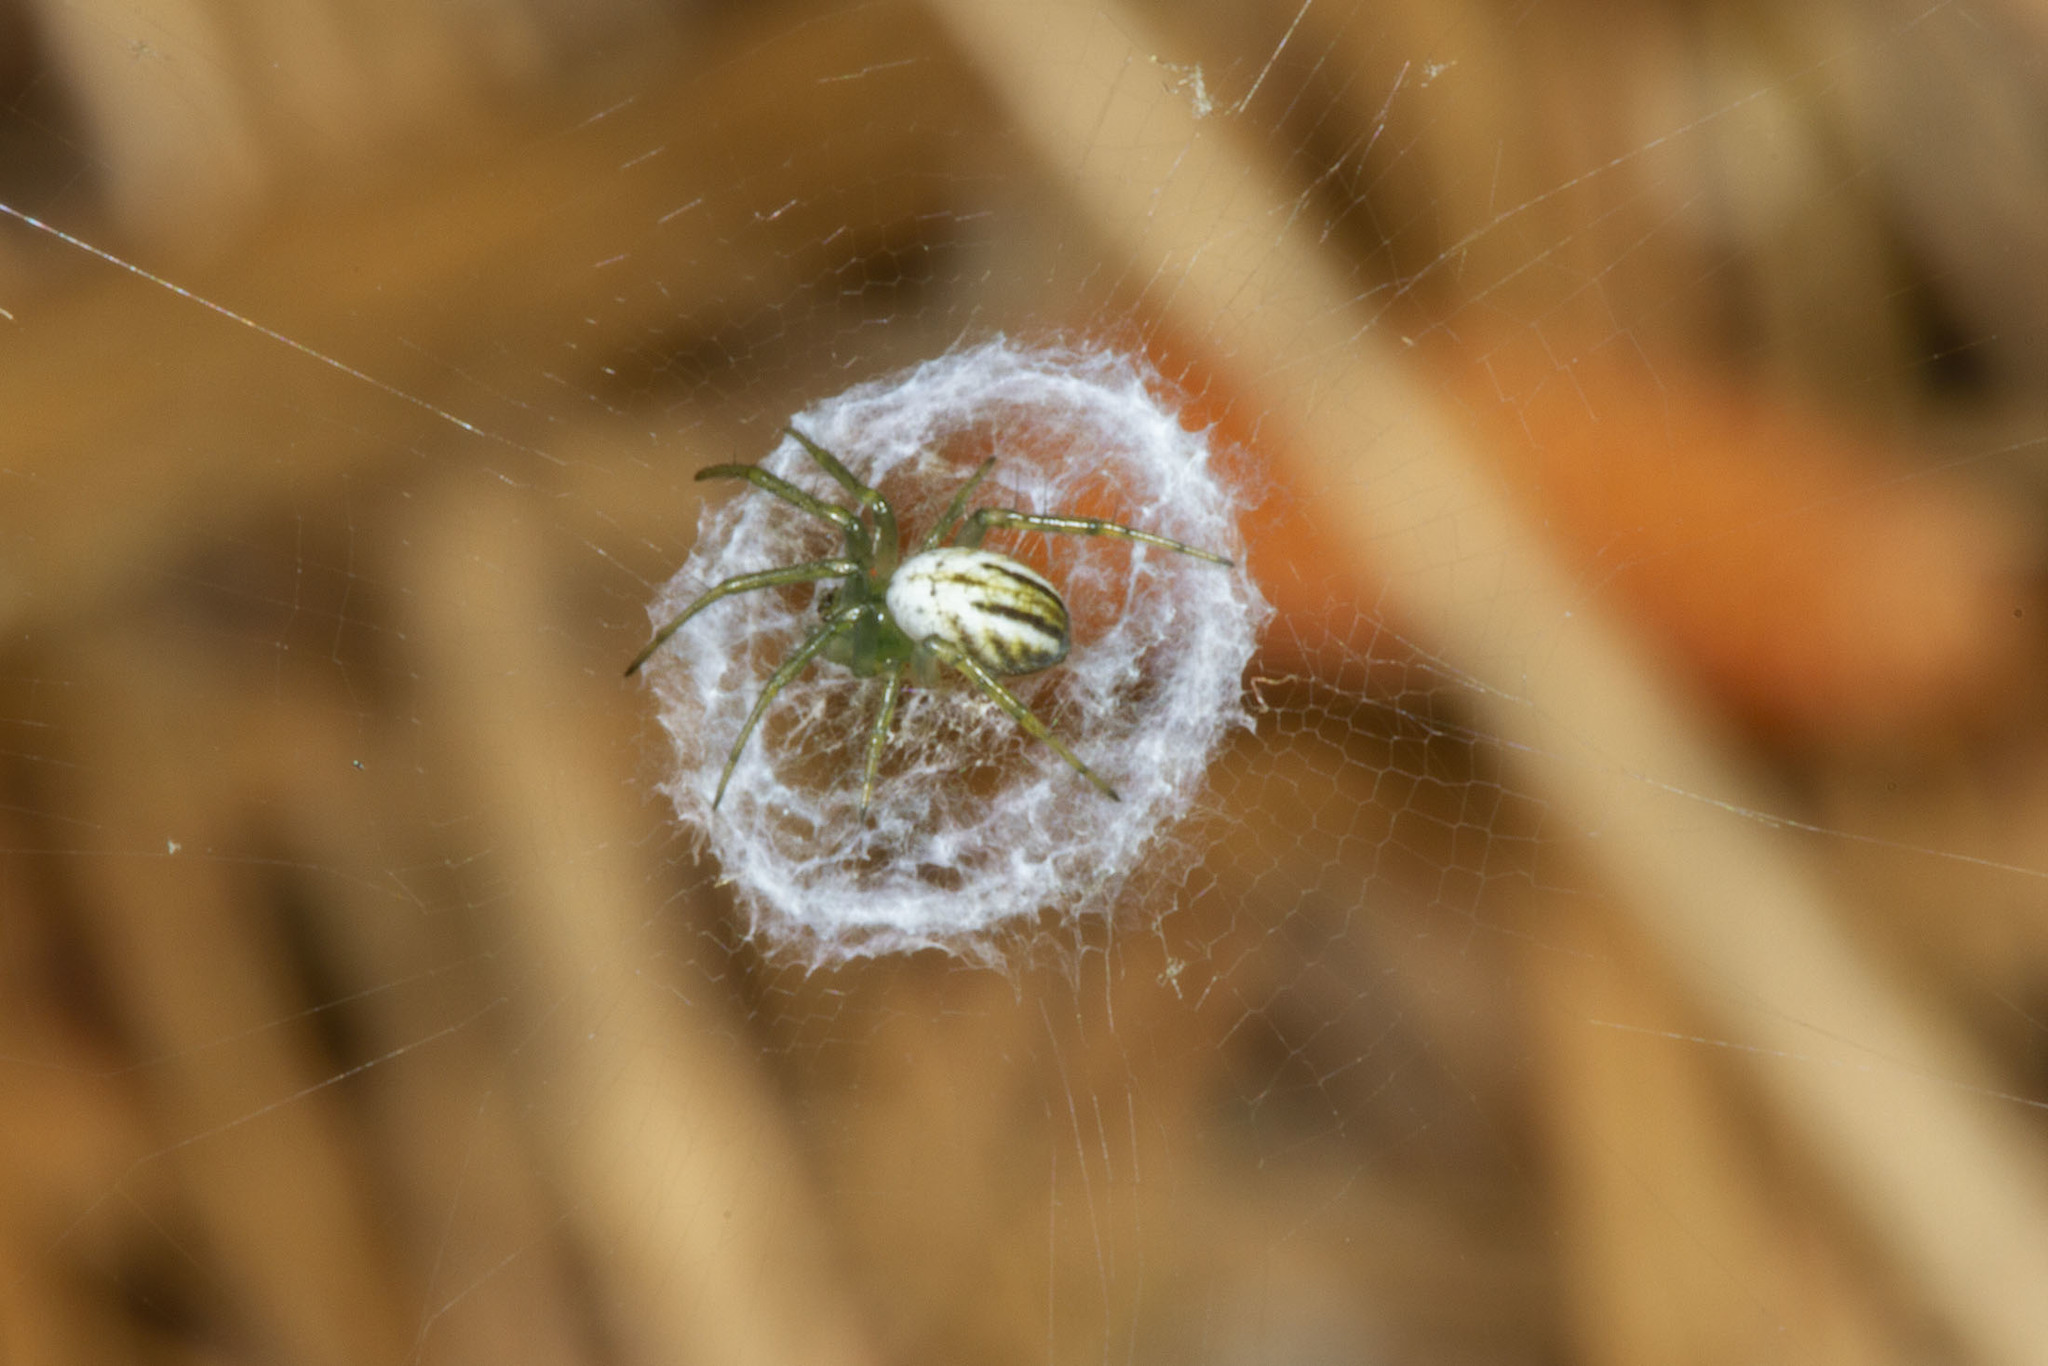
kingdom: Animalia
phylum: Arthropoda
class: Arachnida
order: Araneae
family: Araneidae
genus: Mangora
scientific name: Mangora gibberosa
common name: Lined orbweaver
